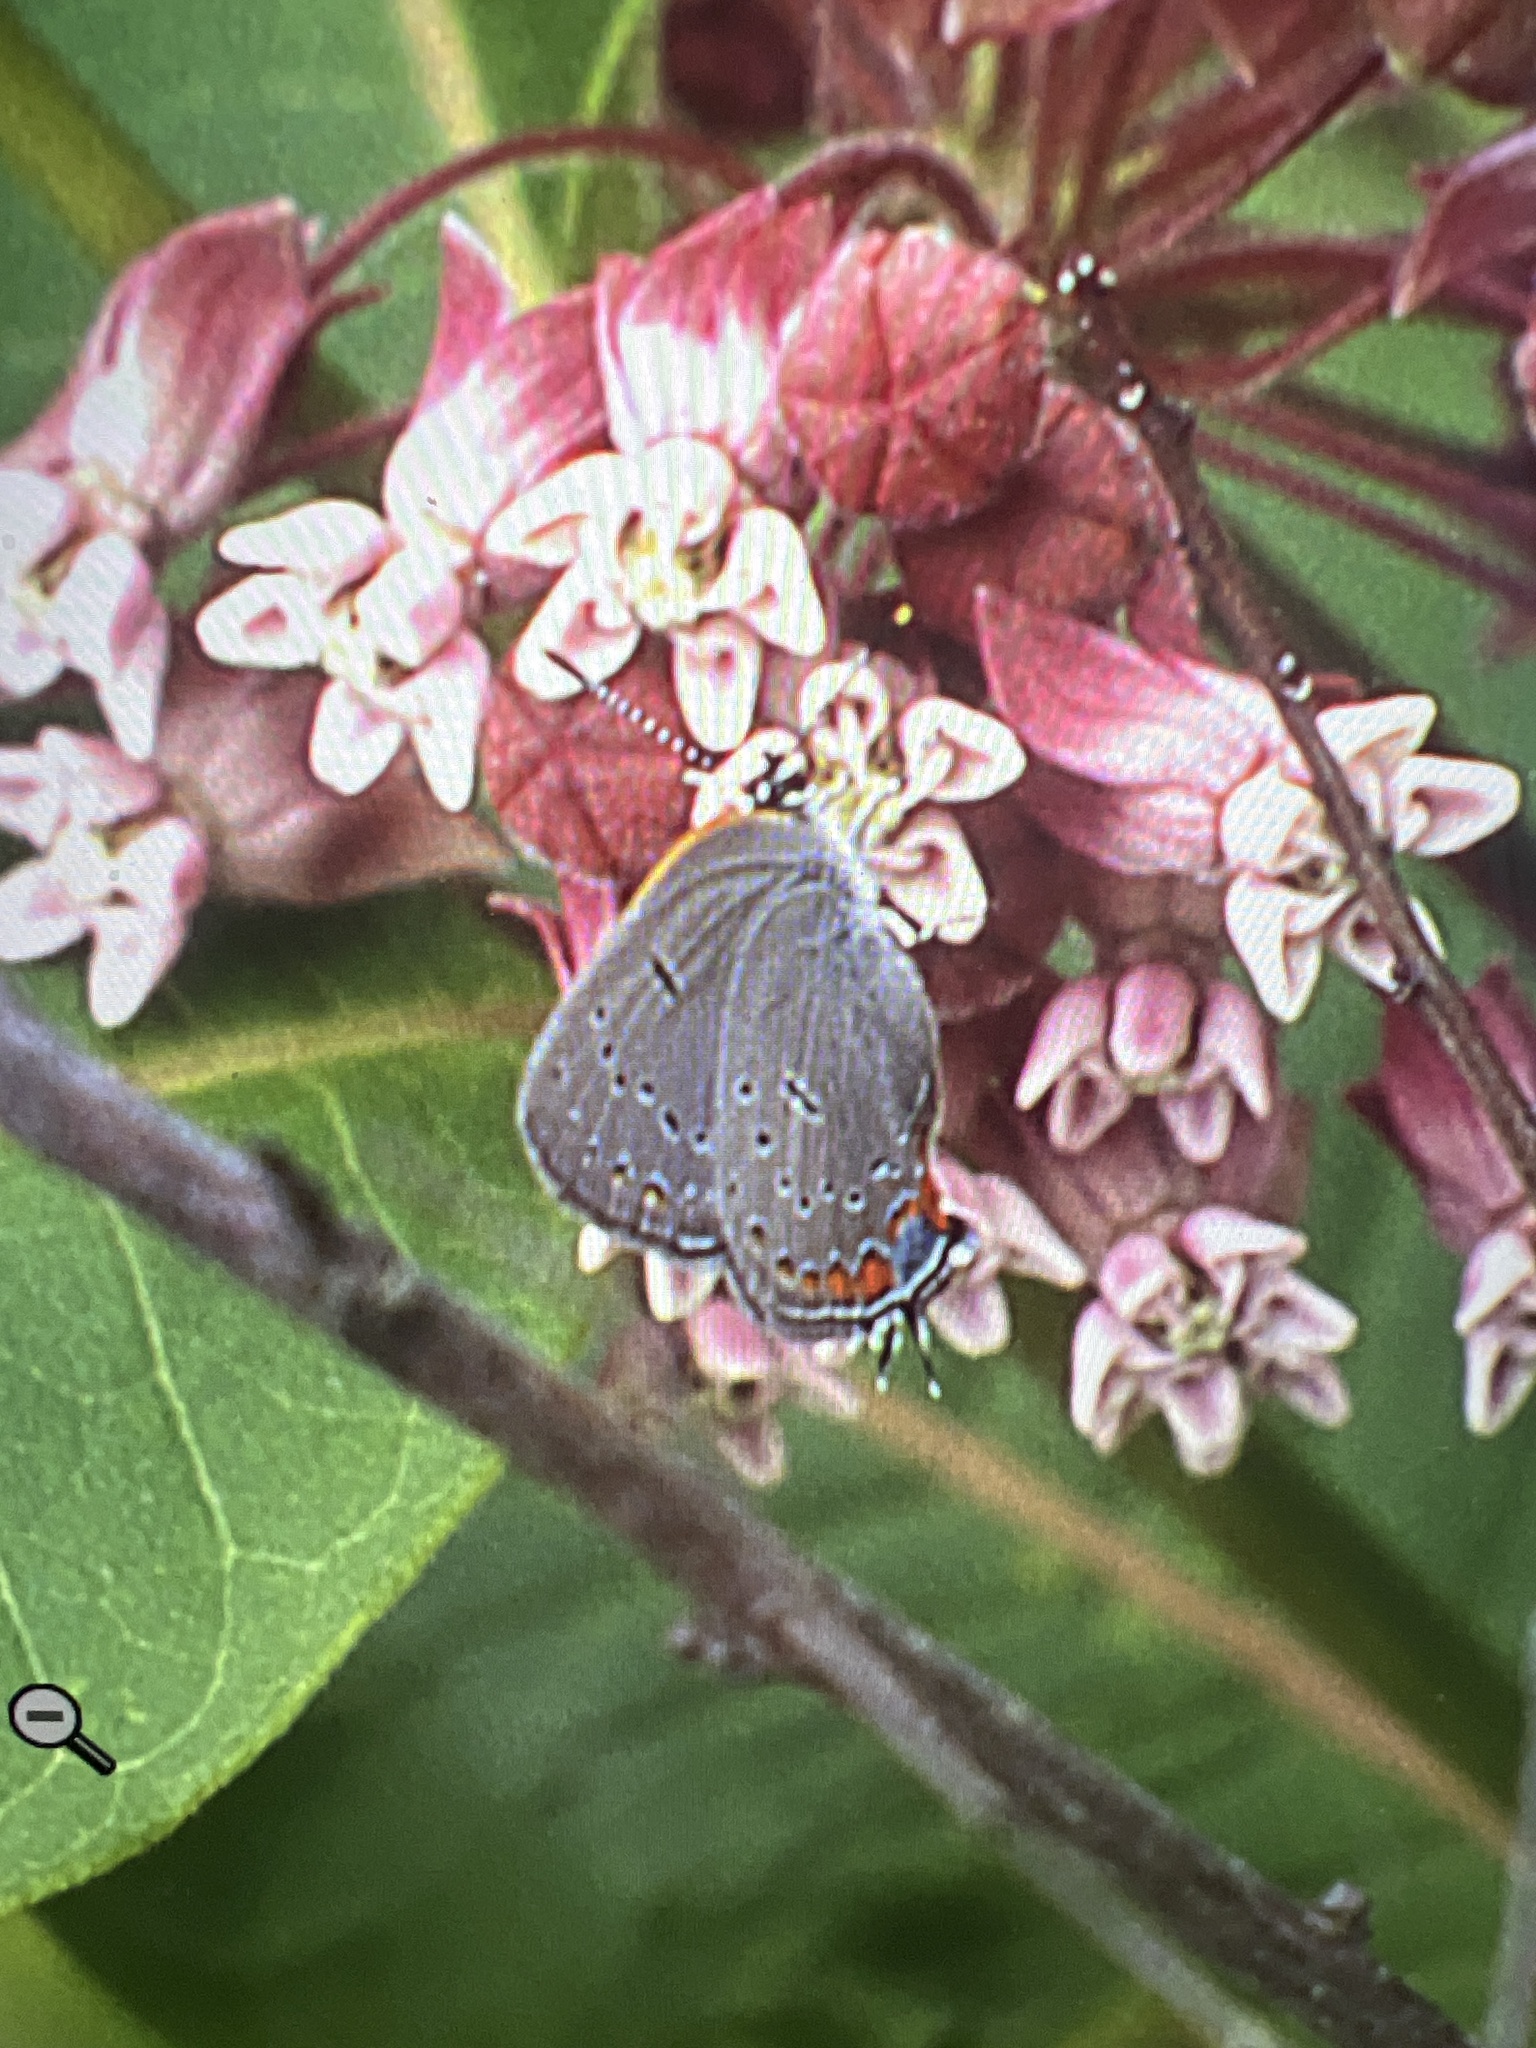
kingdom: Animalia
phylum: Arthropoda
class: Insecta
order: Lepidoptera
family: Lycaenidae
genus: Strymon
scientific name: Strymon acadica
